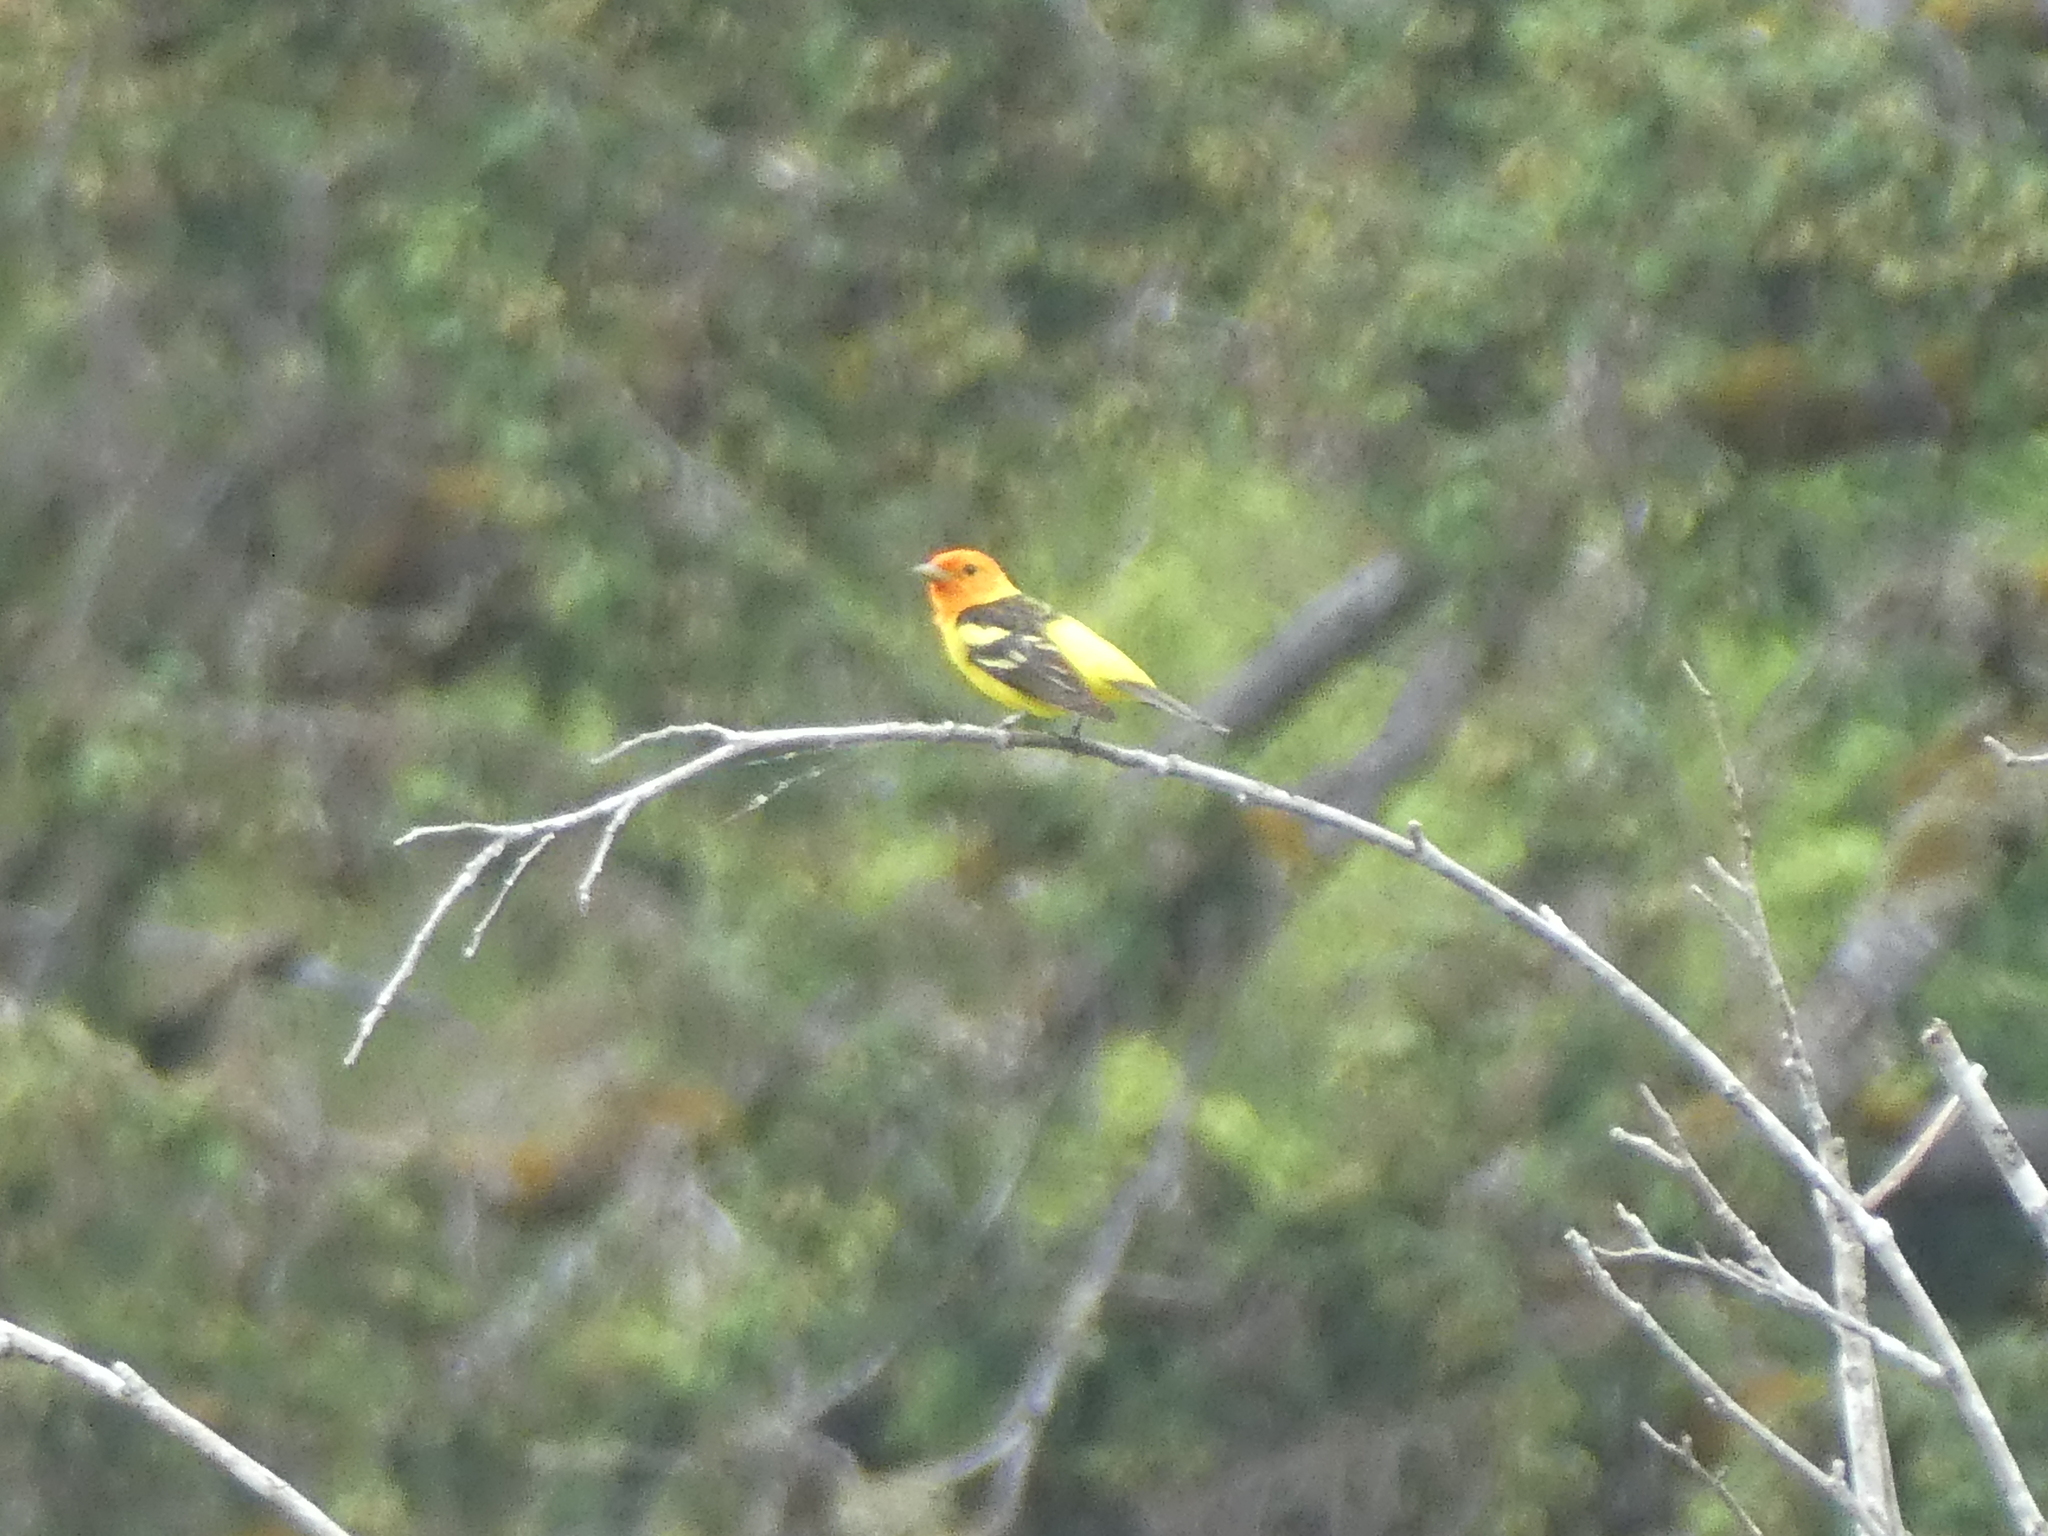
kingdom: Animalia
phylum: Chordata
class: Aves
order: Passeriformes
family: Cardinalidae
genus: Piranga
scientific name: Piranga ludoviciana
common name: Western tanager
